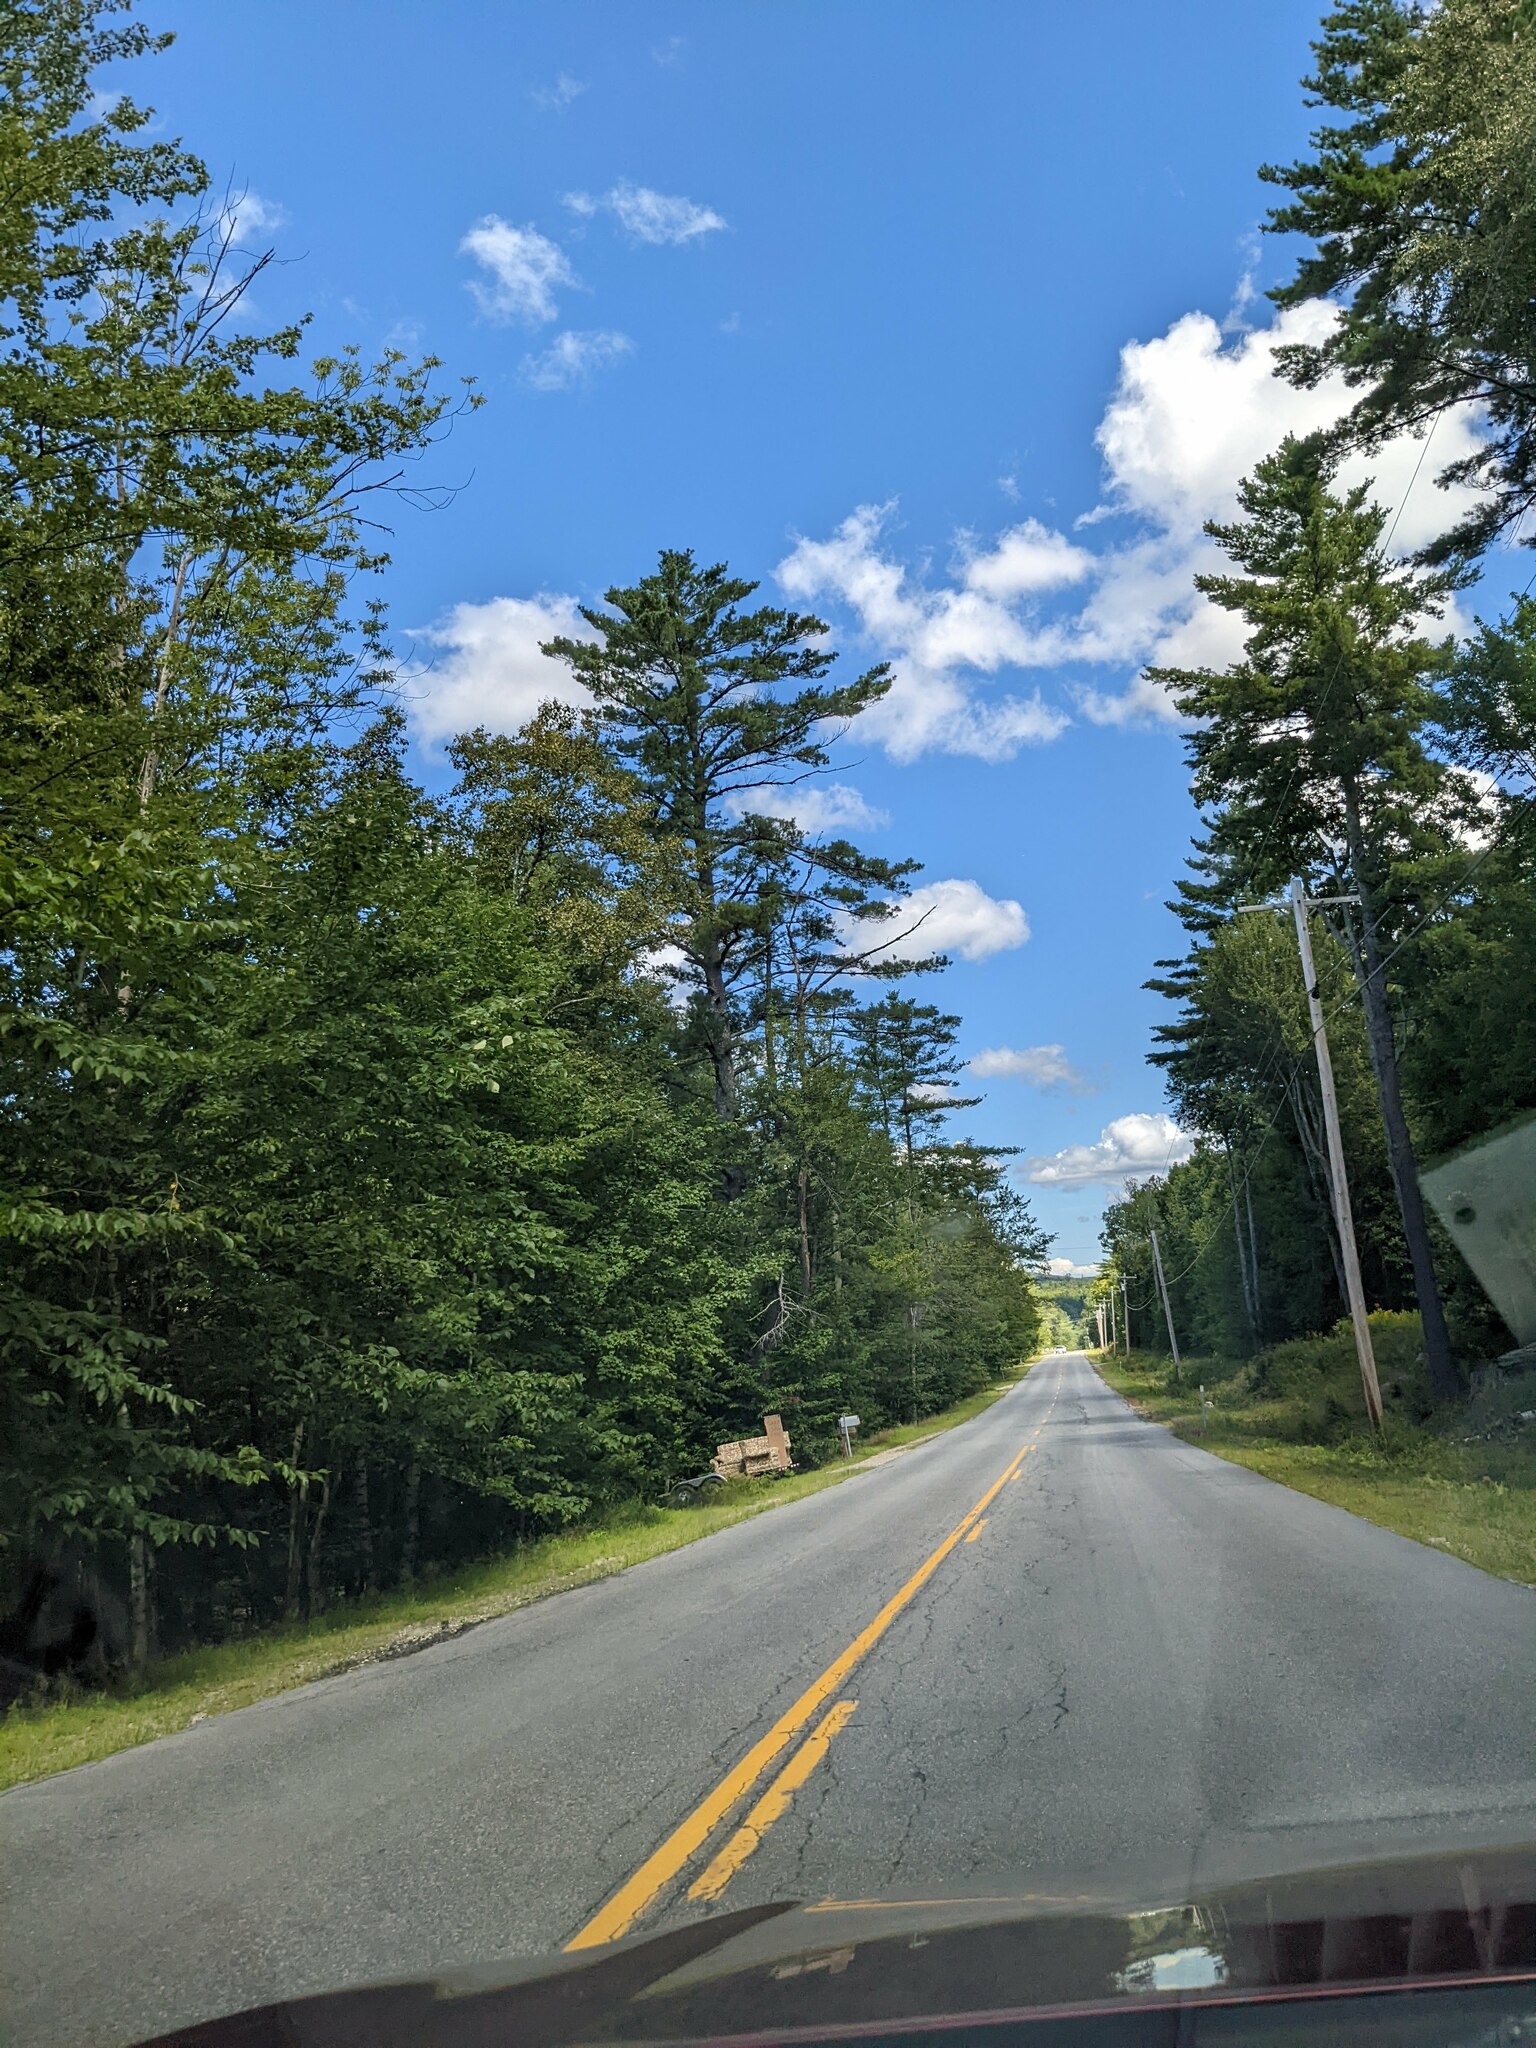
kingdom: Plantae
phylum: Tracheophyta
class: Pinopsida
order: Pinales
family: Pinaceae
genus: Pinus
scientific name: Pinus strobus
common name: Weymouth pine
